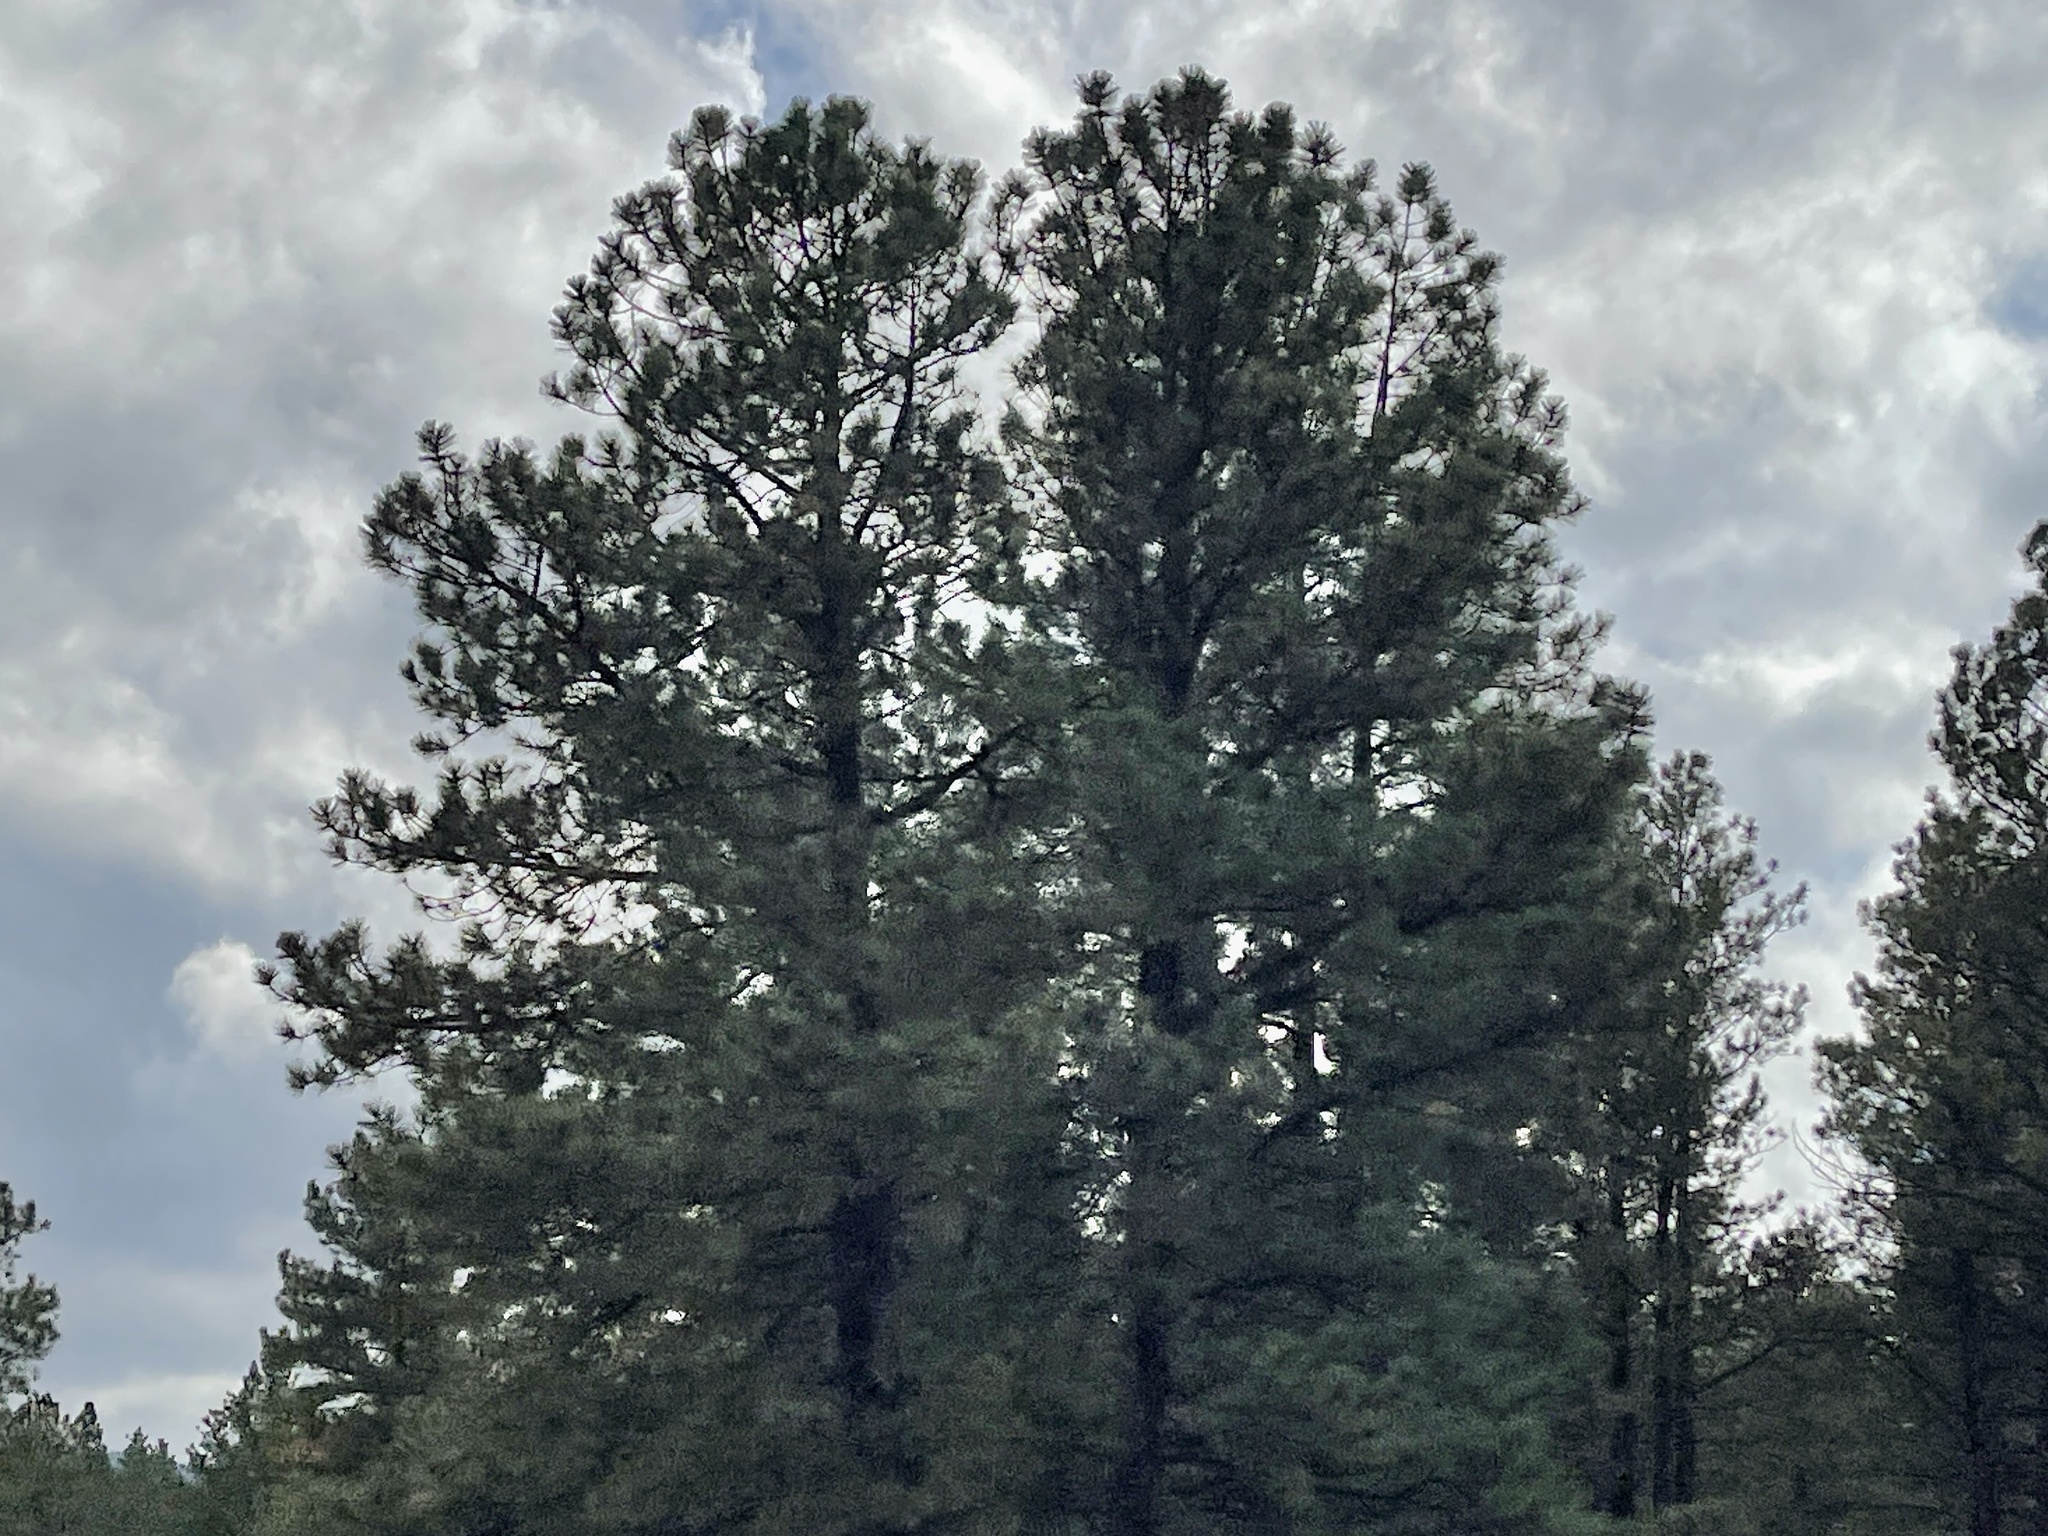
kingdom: Plantae
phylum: Tracheophyta
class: Pinopsida
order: Pinales
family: Pinaceae
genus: Pinus
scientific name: Pinus ponderosa
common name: Western yellow-pine
